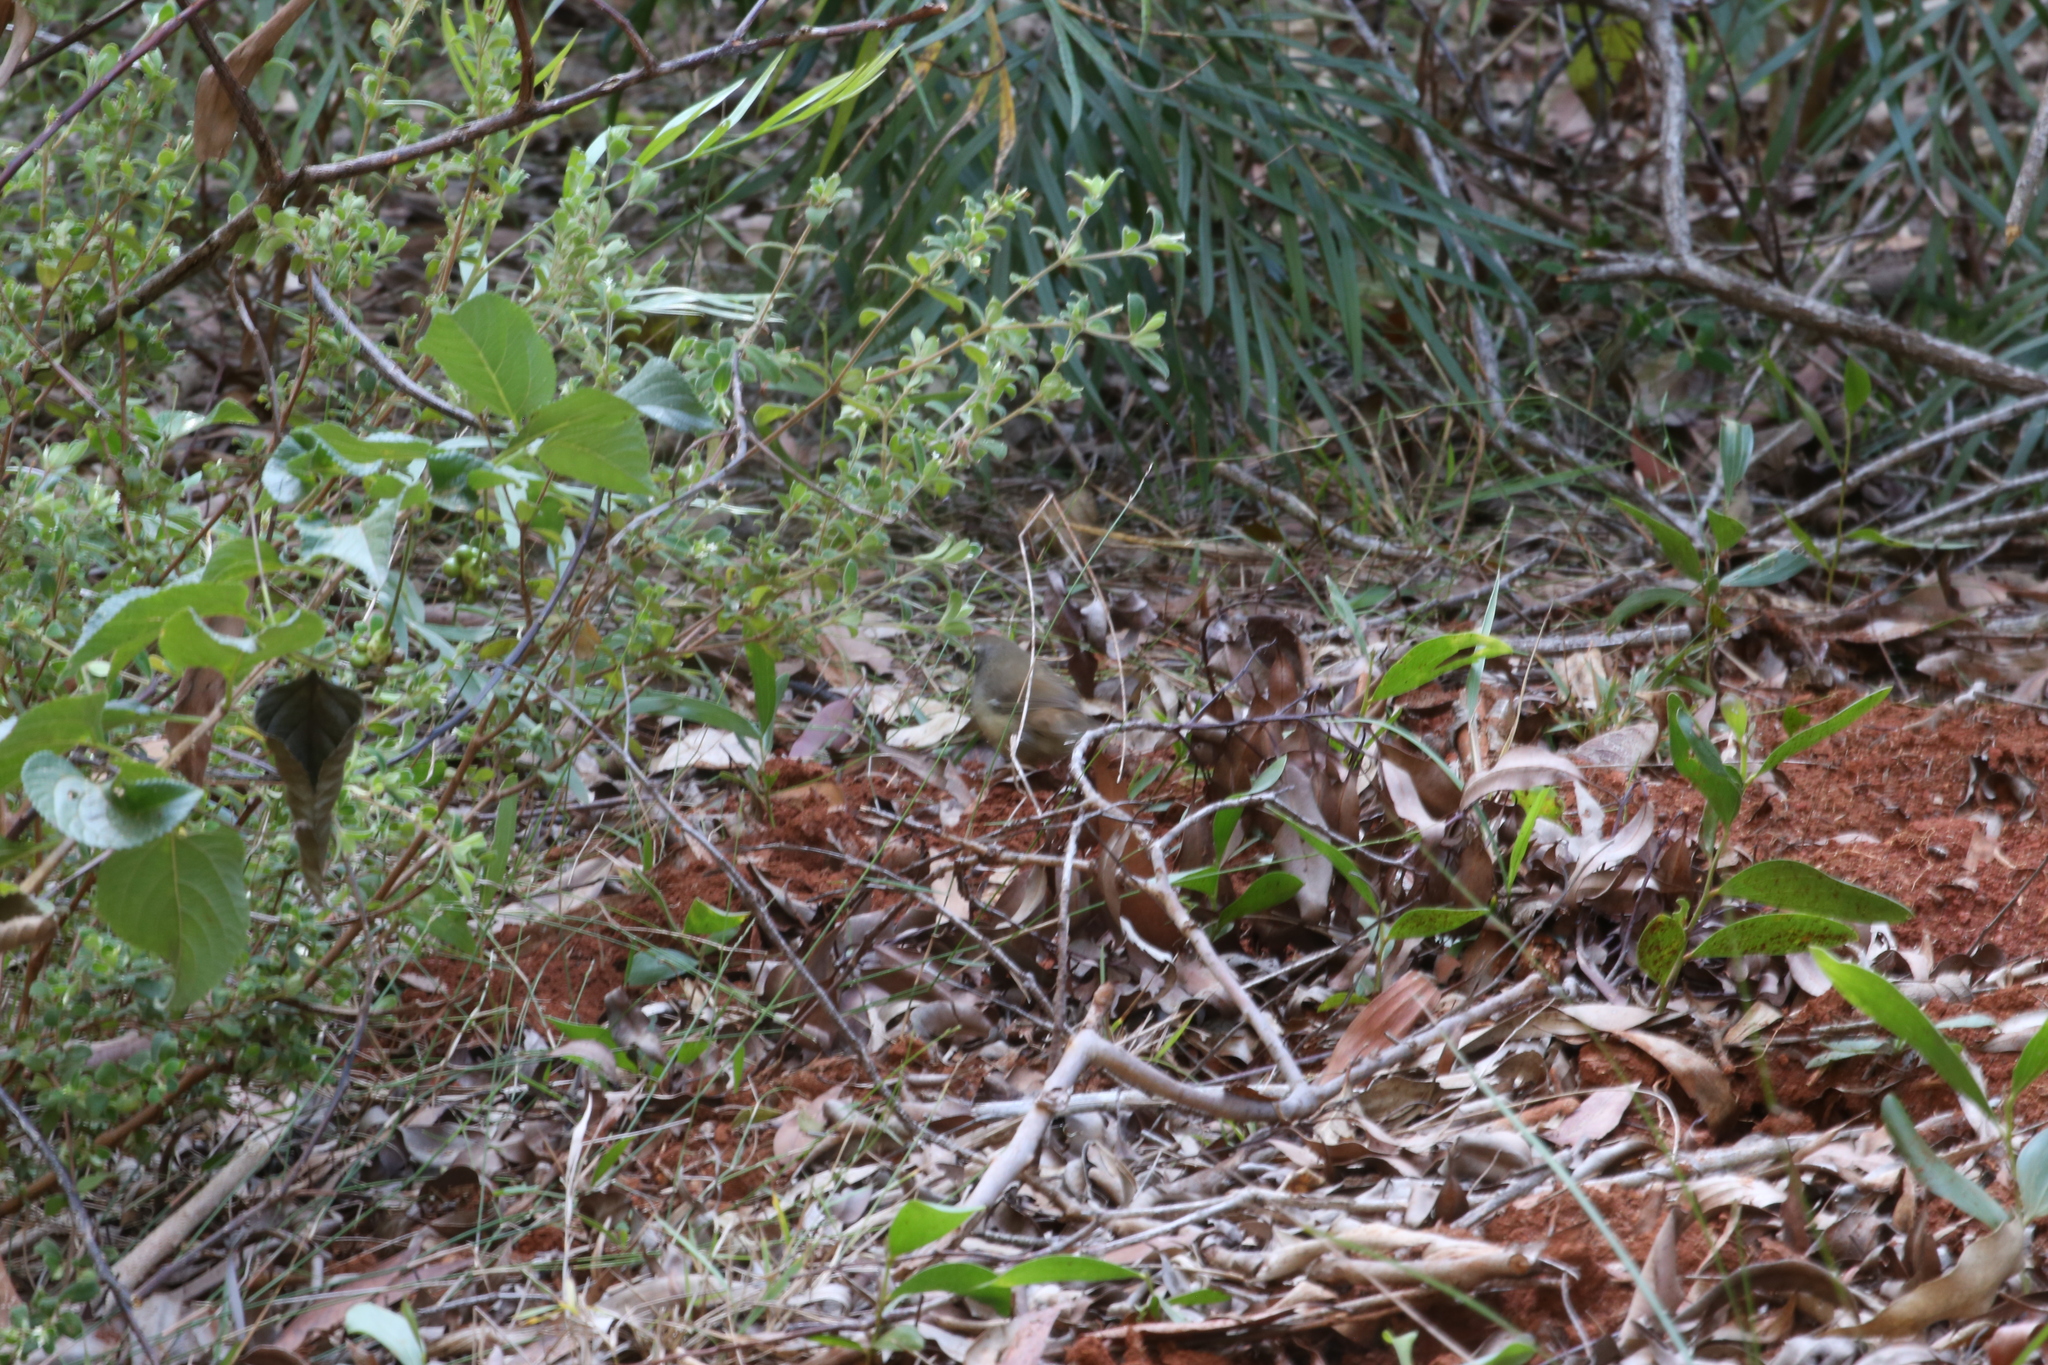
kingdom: Animalia
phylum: Chordata
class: Aves
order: Passeriformes
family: Acanthizidae
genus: Sericornis
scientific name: Sericornis frontalis
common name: White-browed scrubwren
